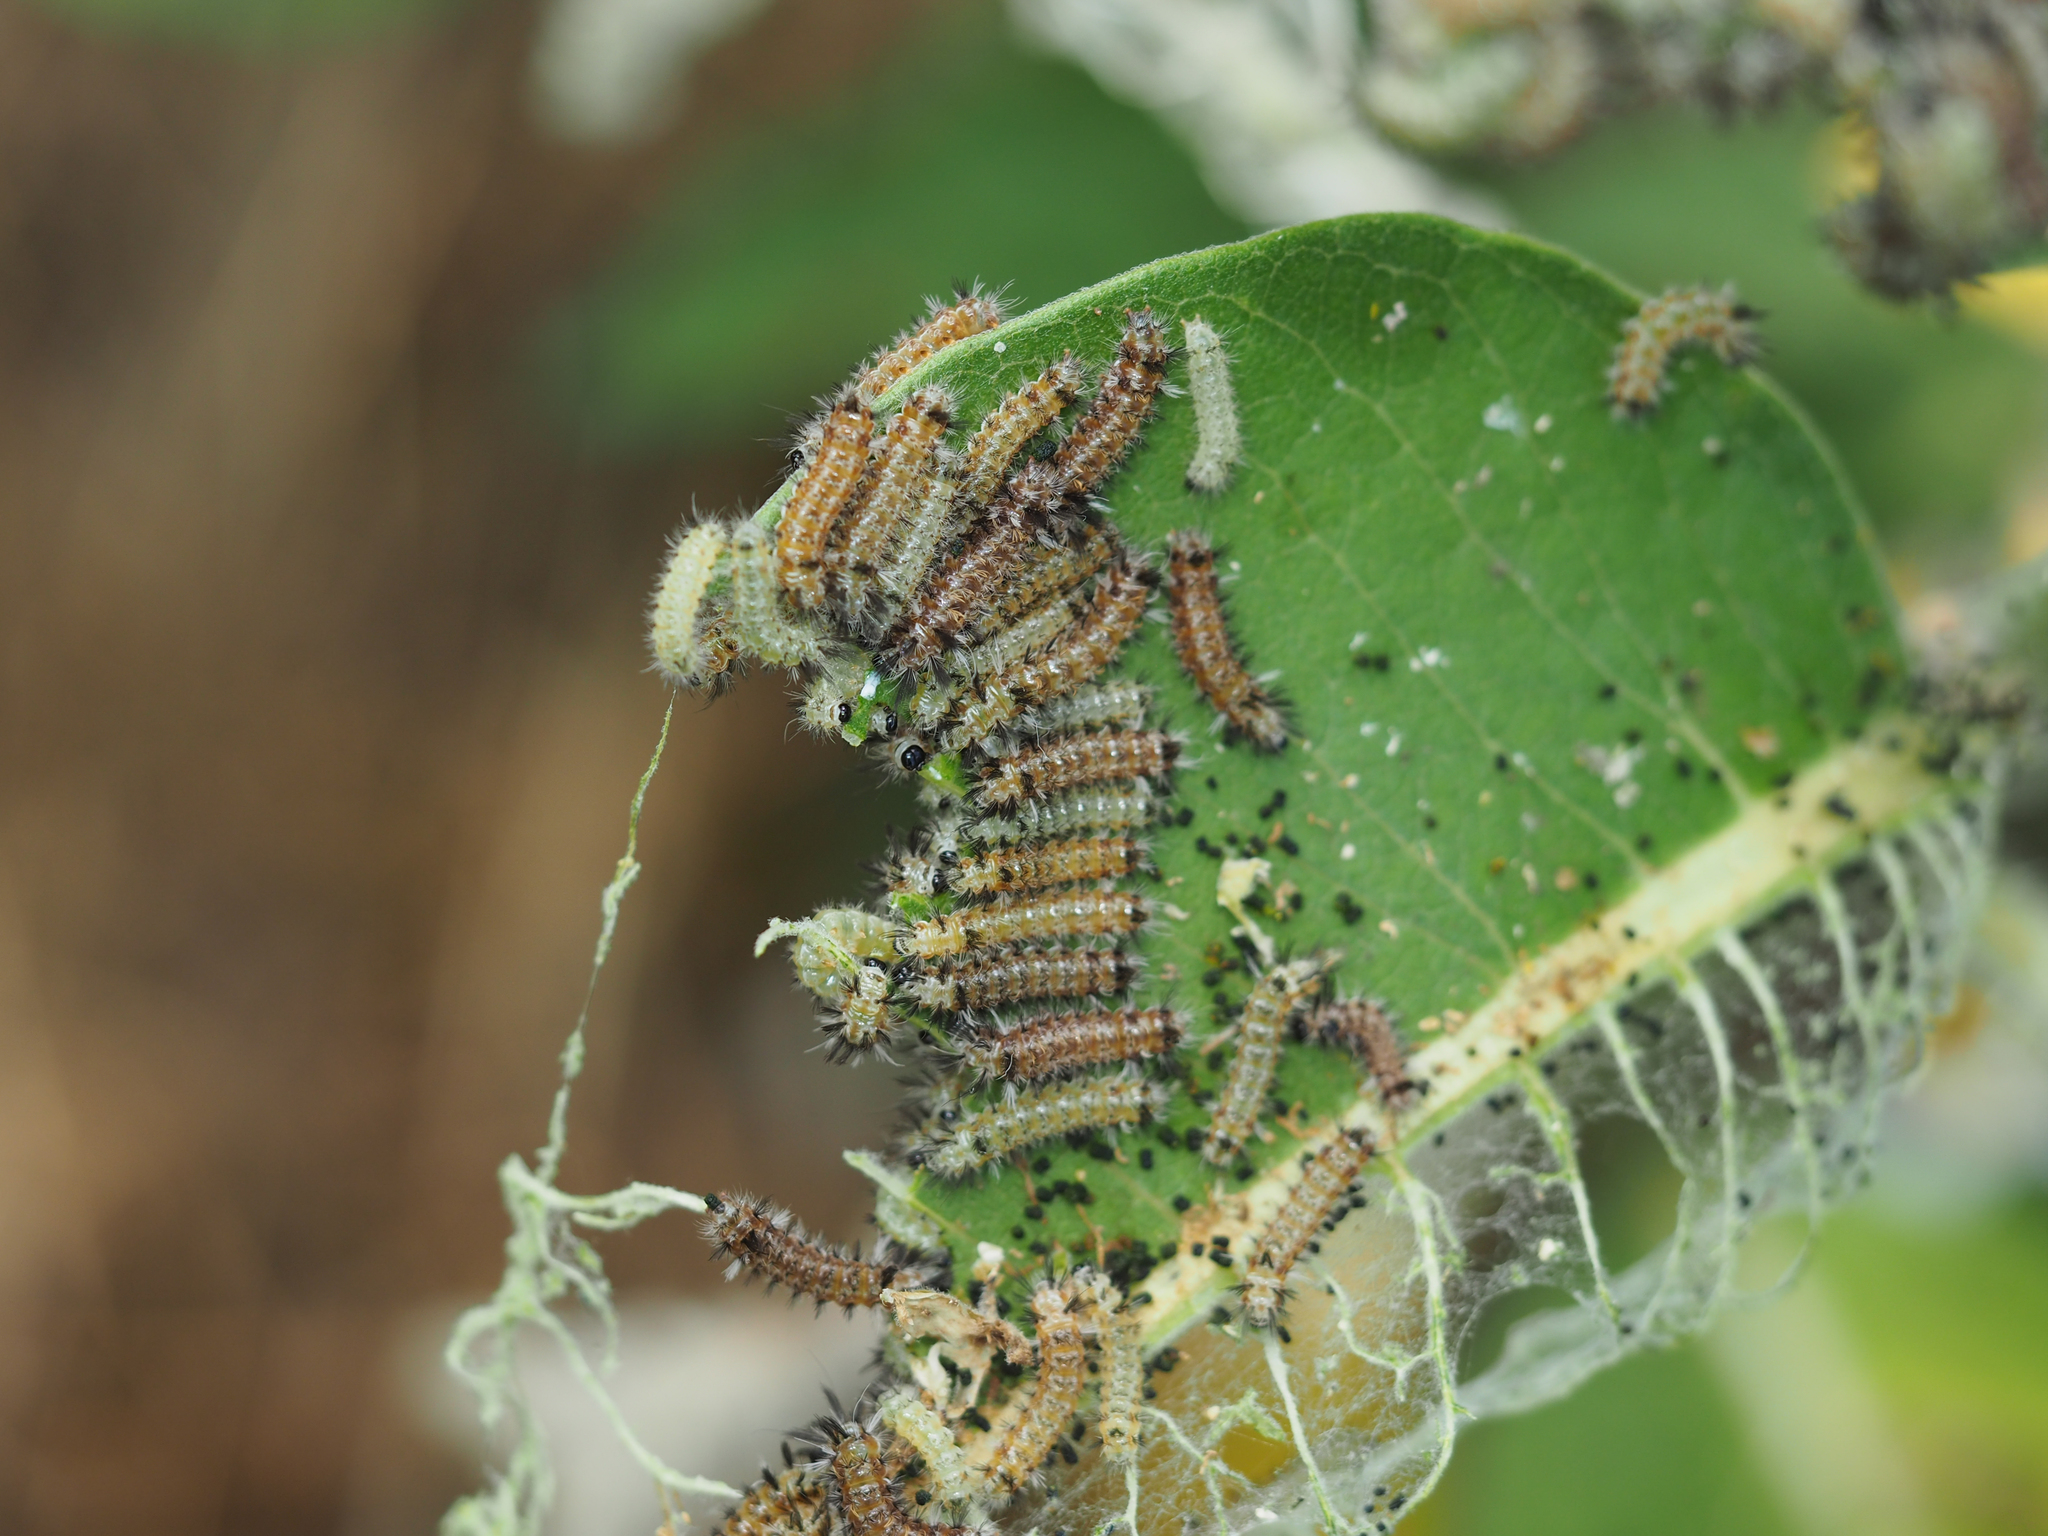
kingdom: Animalia
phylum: Arthropoda
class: Insecta
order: Lepidoptera
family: Erebidae
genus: Euchaetes
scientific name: Euchaetes egle
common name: Milkweed tussock moth
